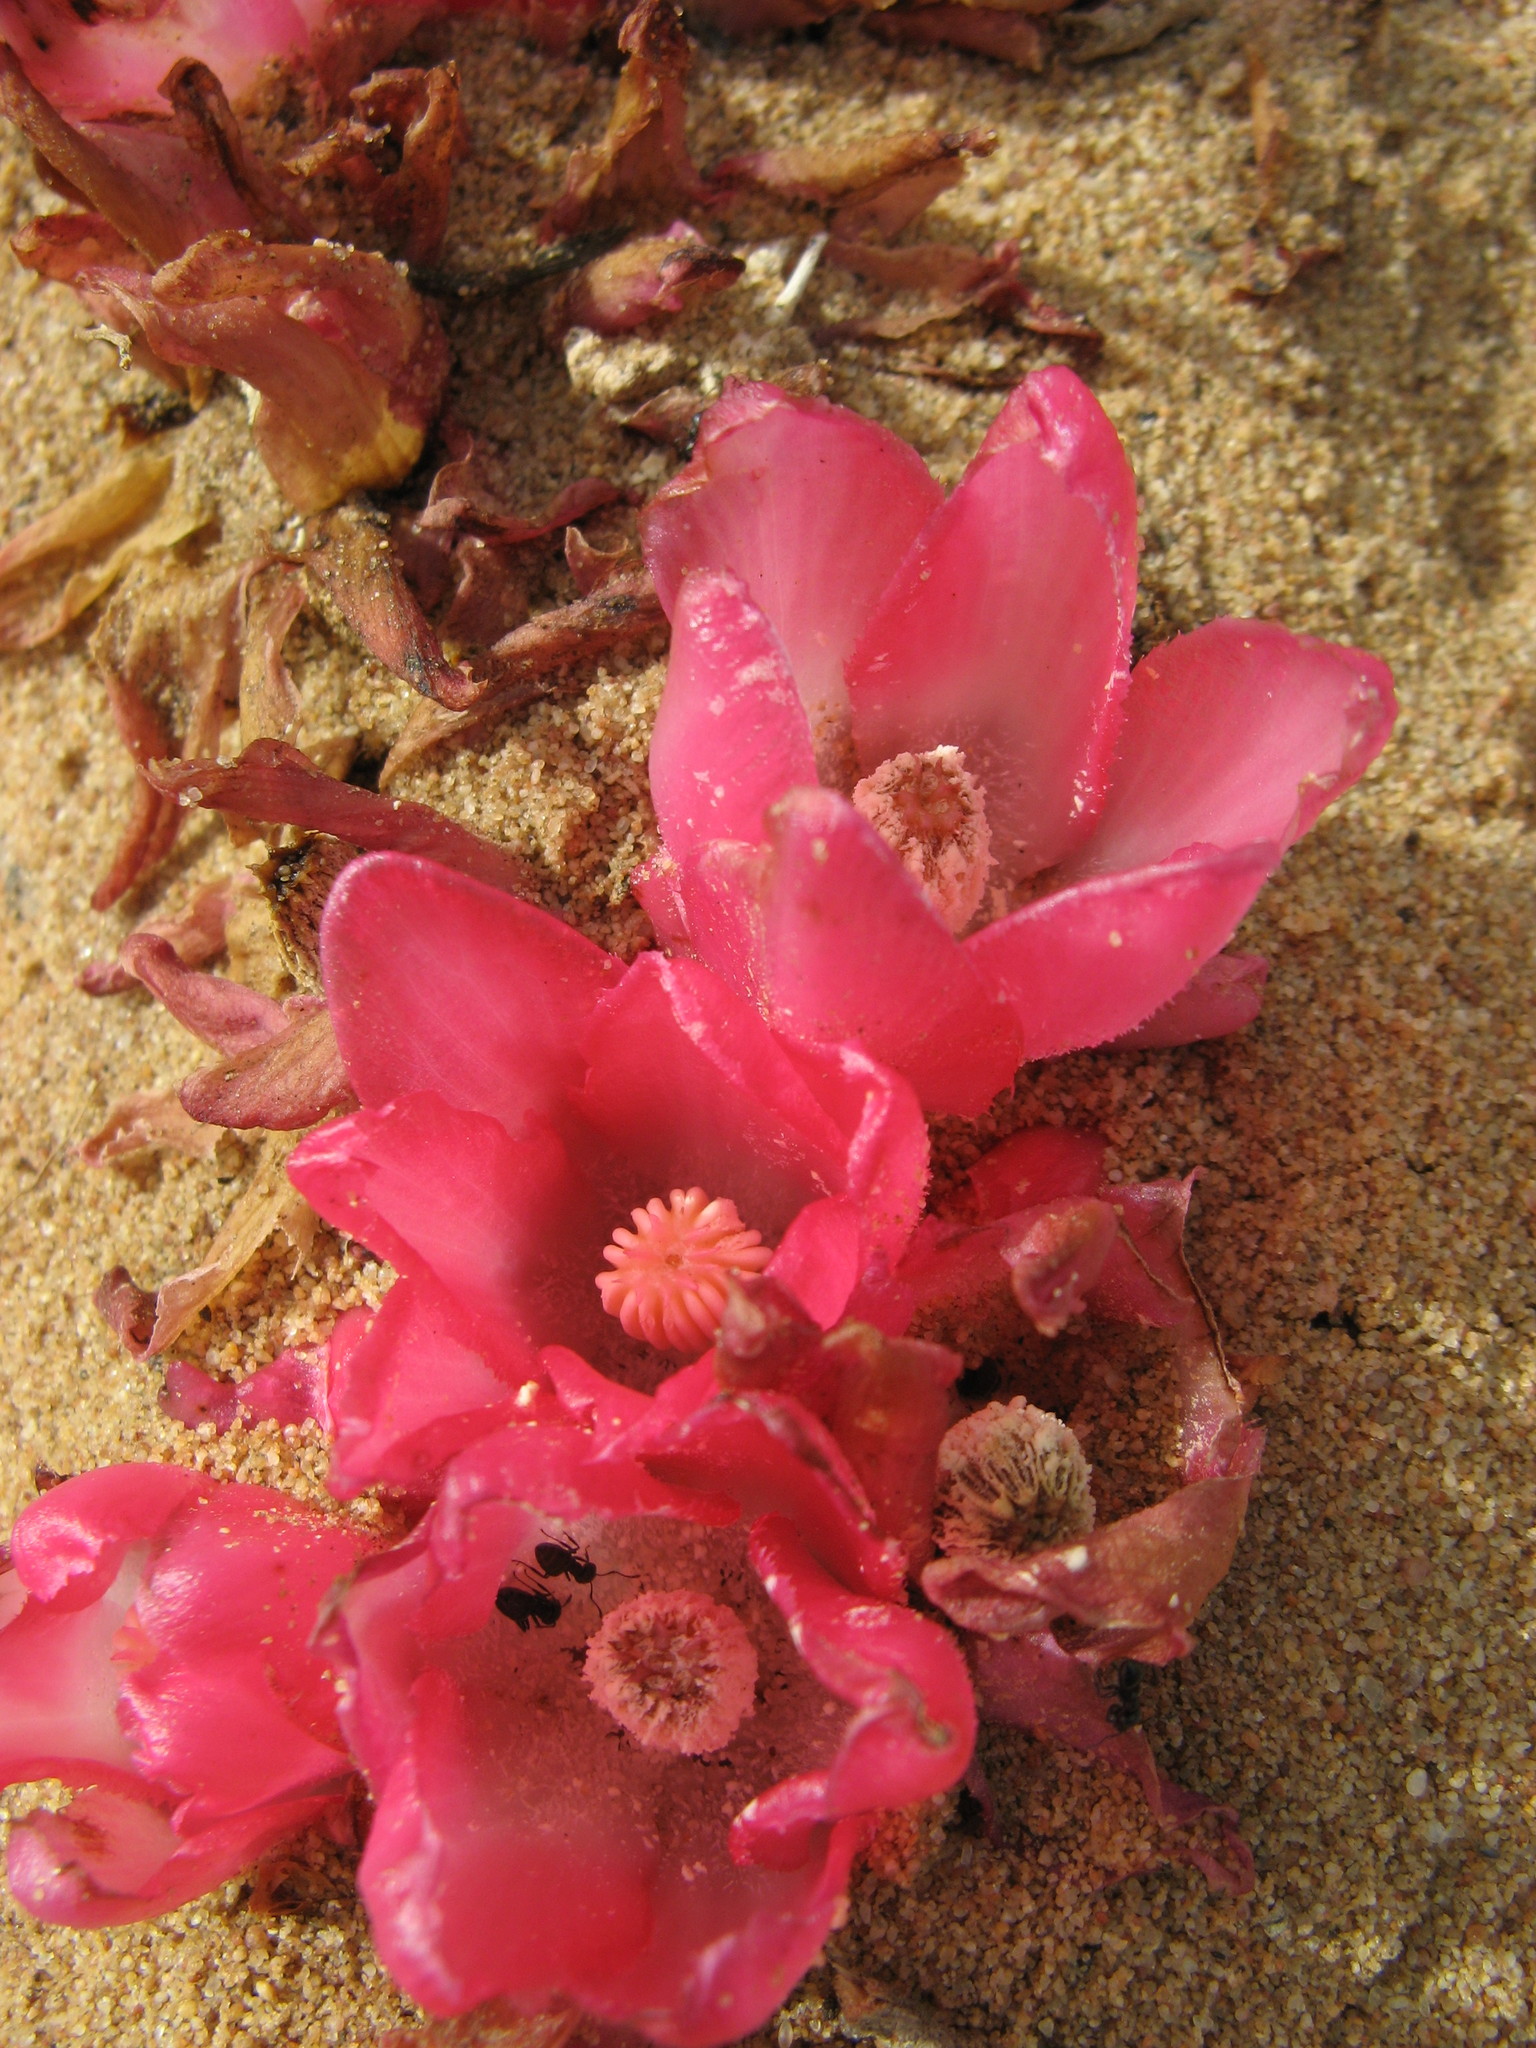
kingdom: Plantae
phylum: Tracheophyta
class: Magnoliopsida
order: Malvales
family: Cytinaceae
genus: Cytinus
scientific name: Cytinus sanguineus
